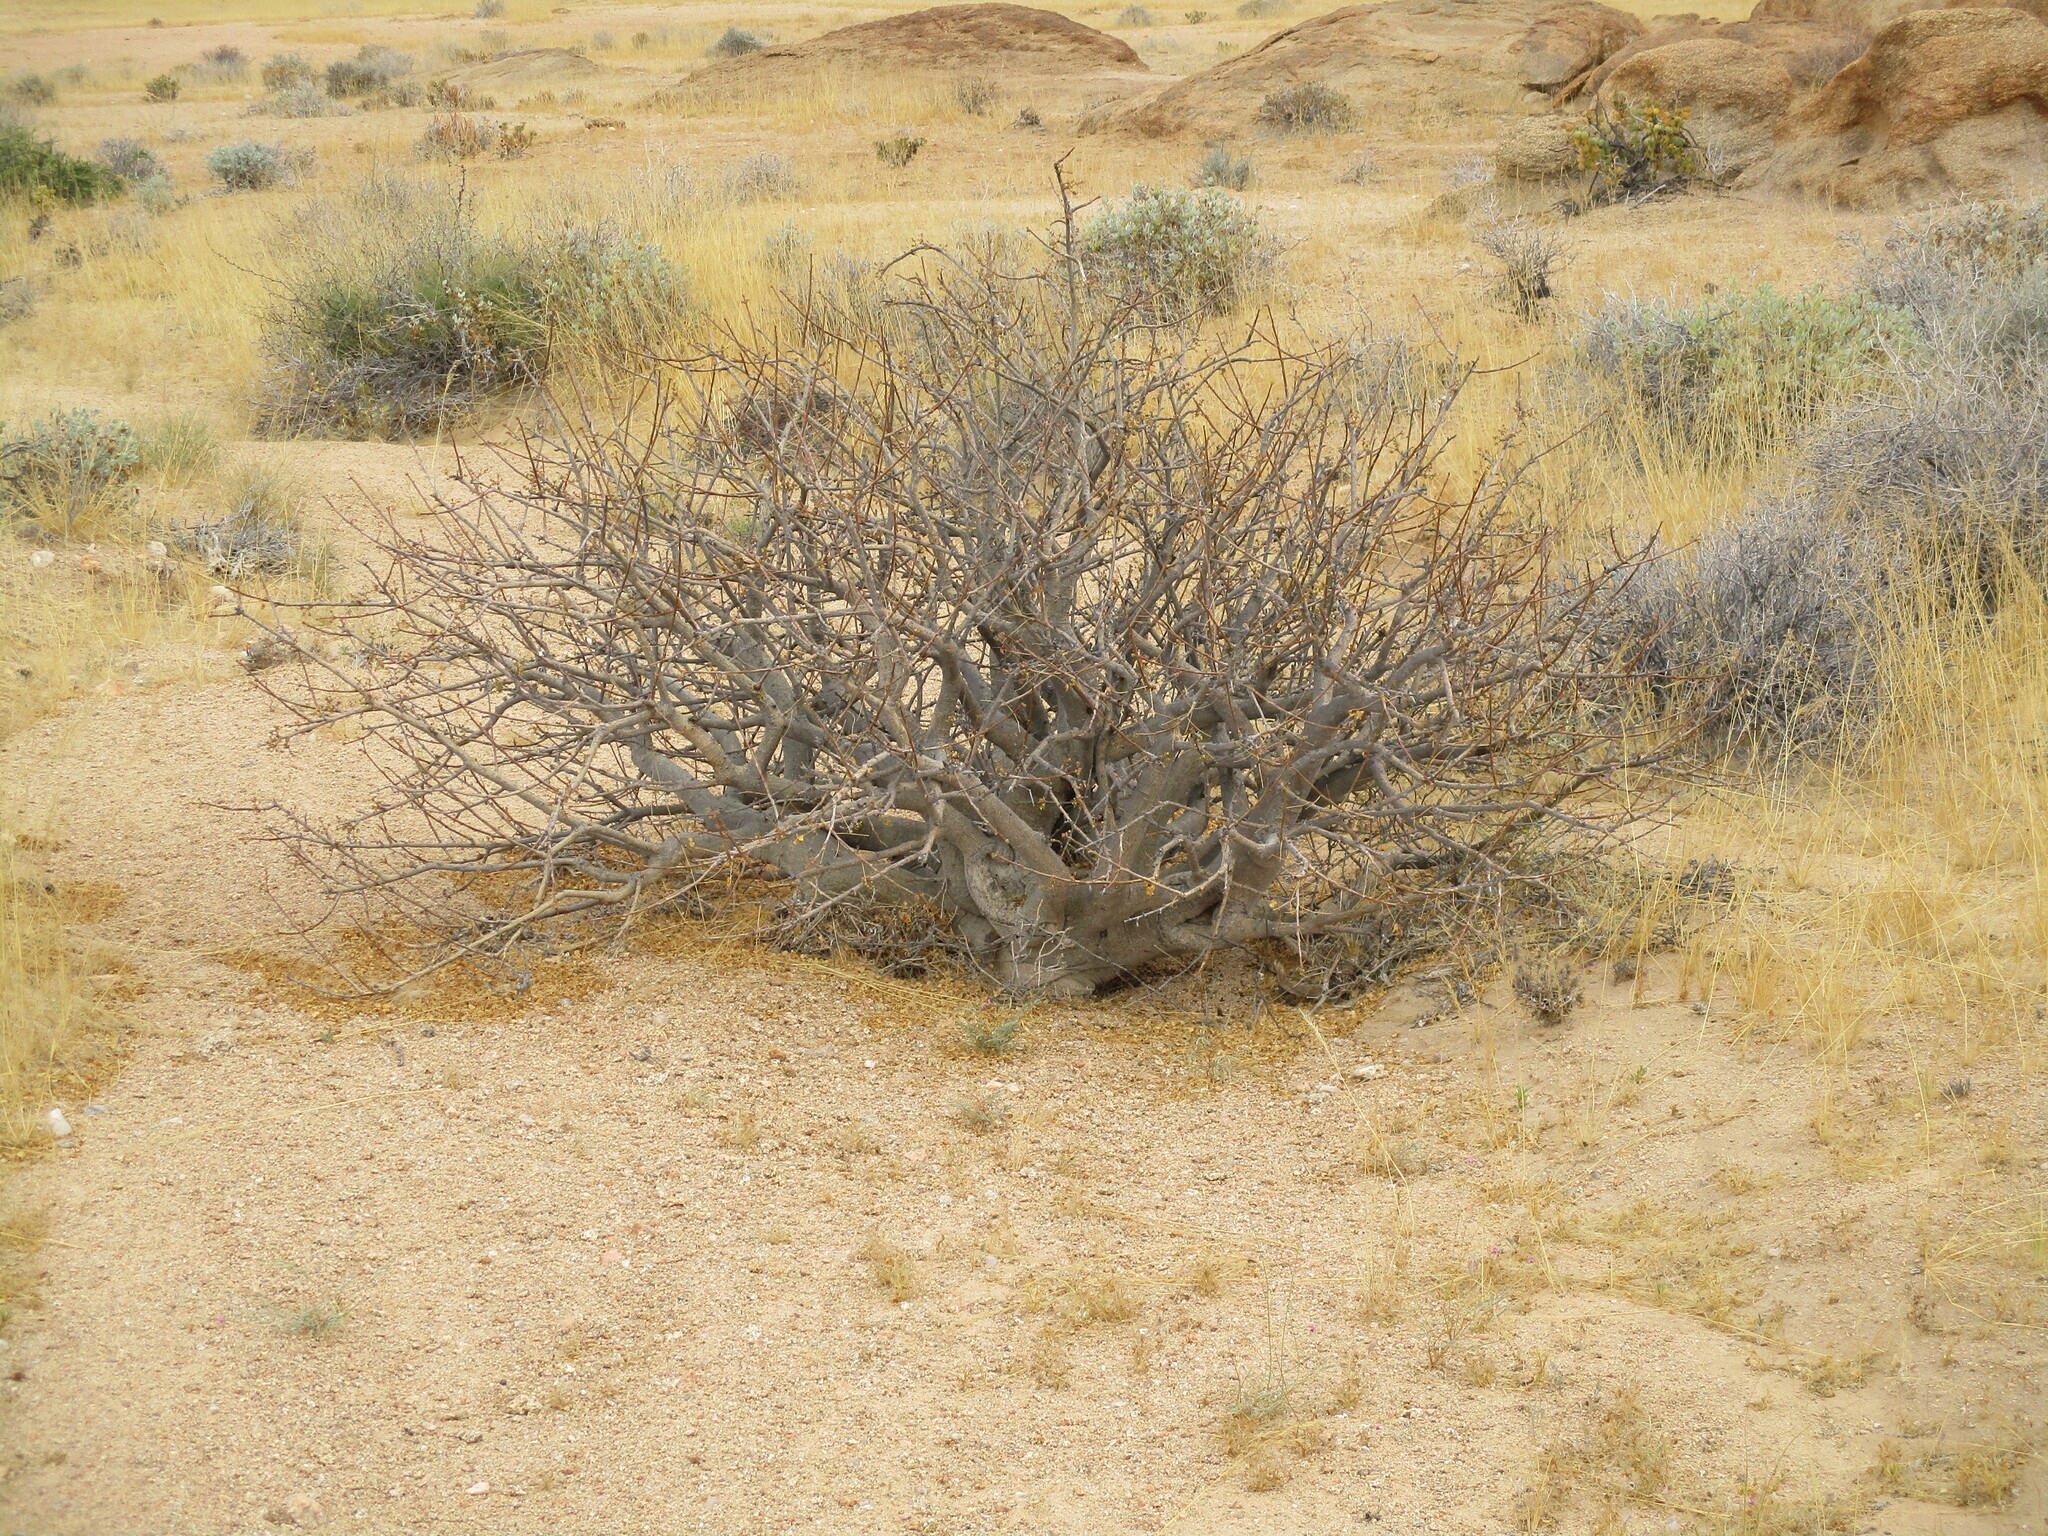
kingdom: Plantae
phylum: Tracheophyta
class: Magnoliopsida
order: Sapindales
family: Burseraceae
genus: Commiphora
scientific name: Commiphora saxicola
